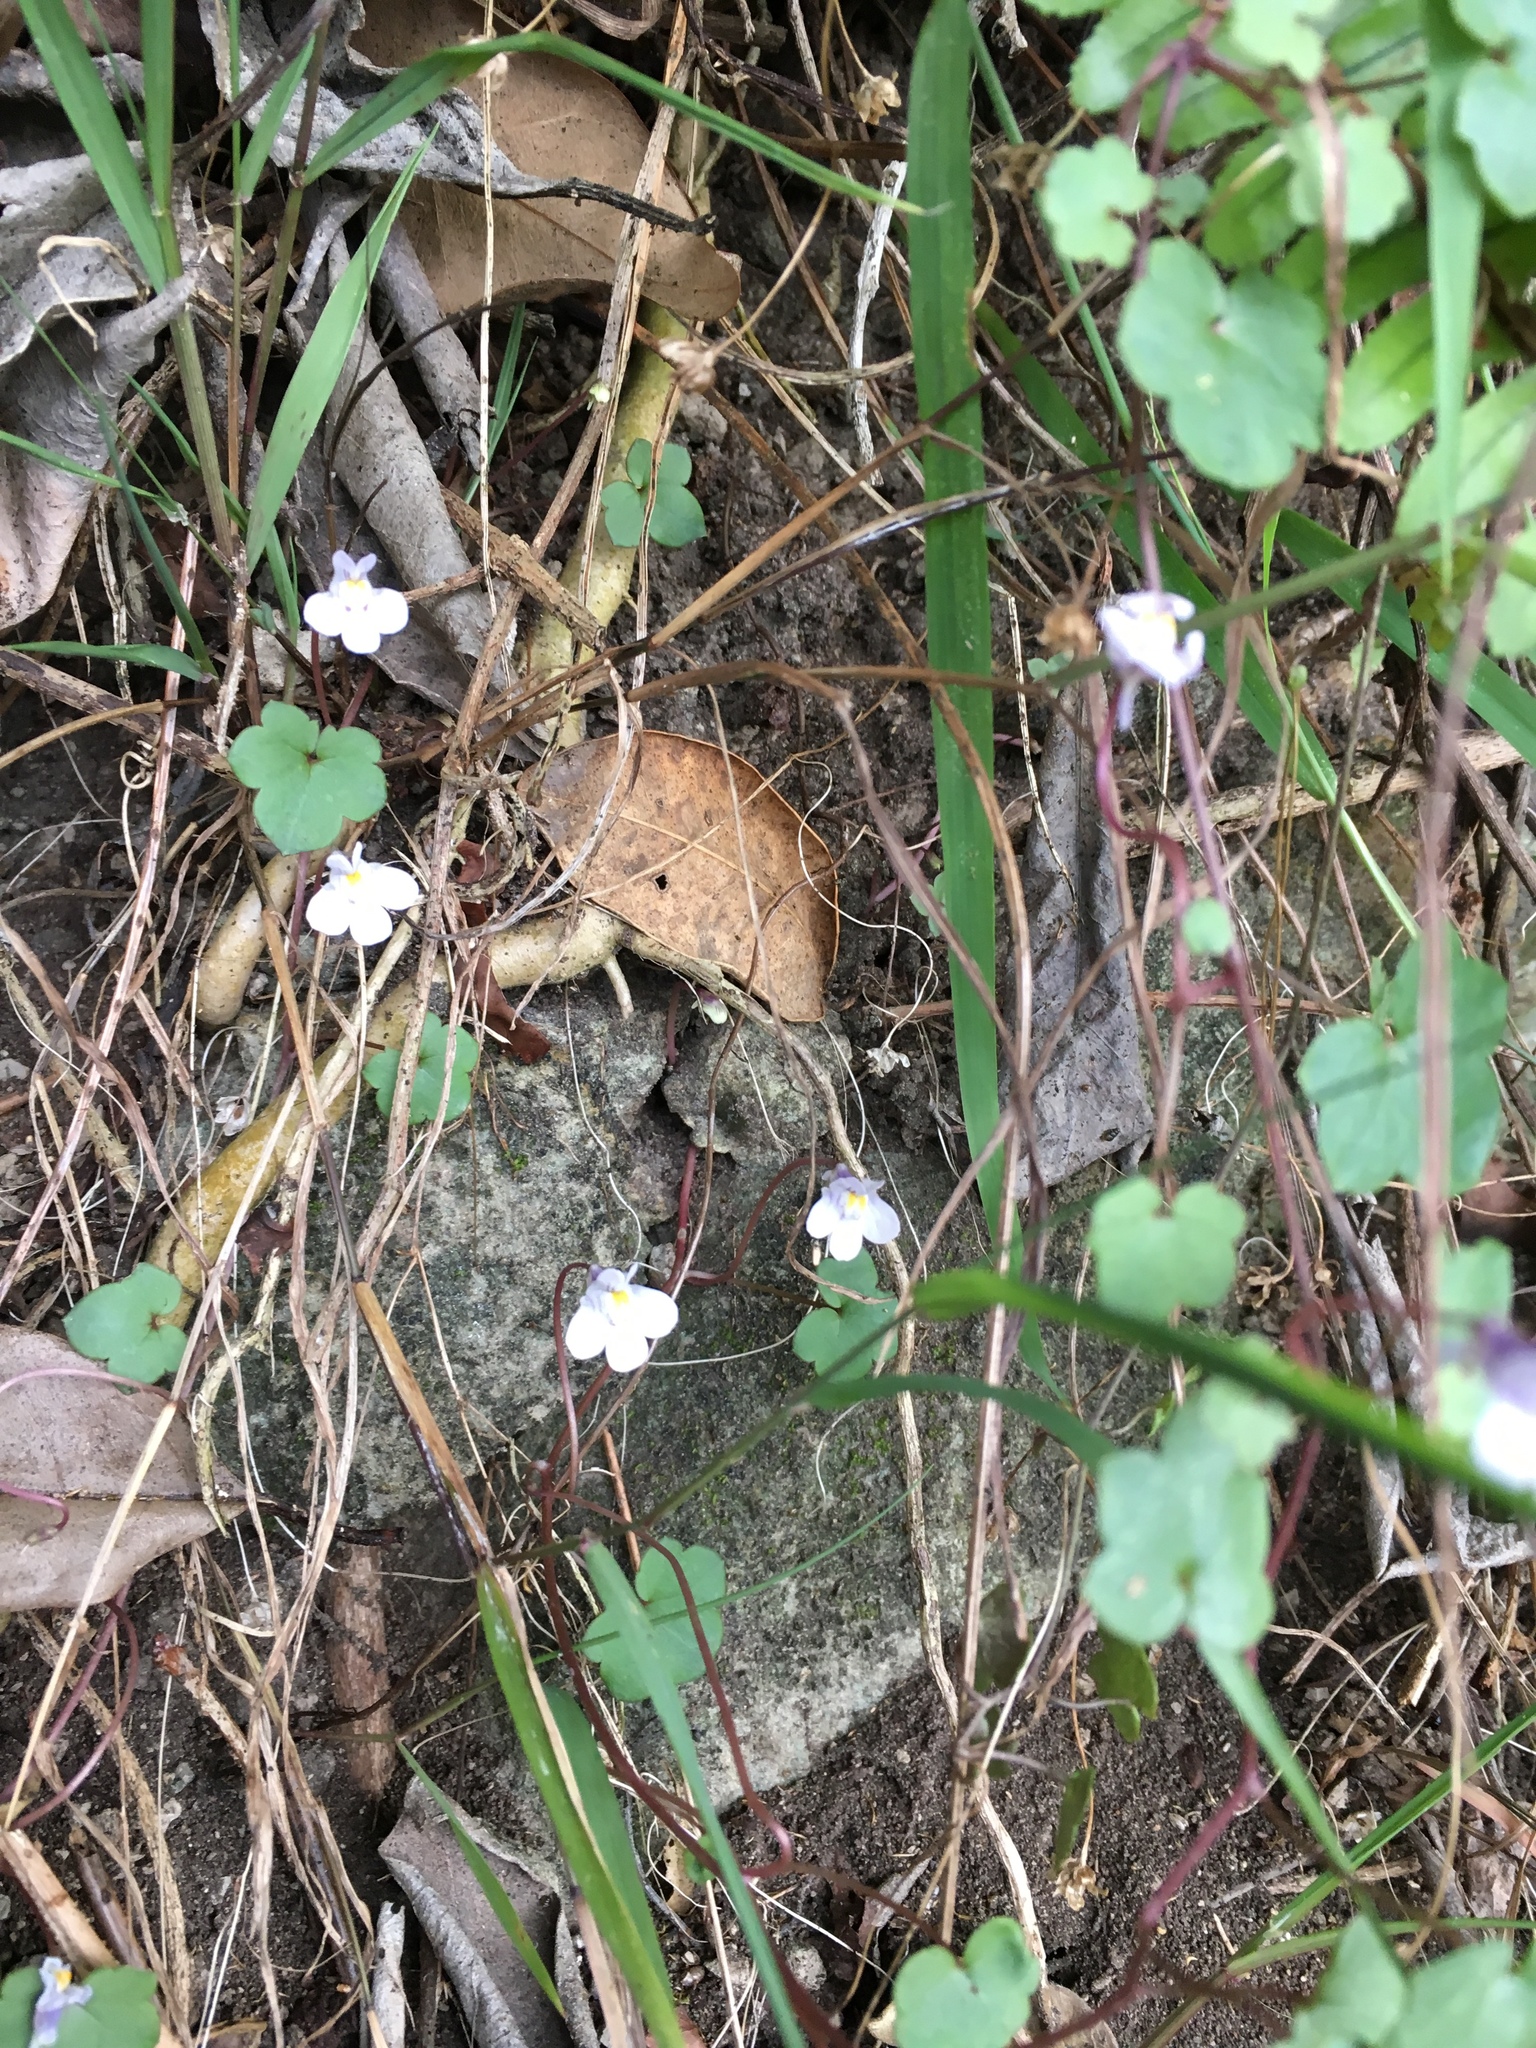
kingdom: Plantae
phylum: Tracheophyta
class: Magnoliopsida
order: Lamiales
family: Plantaginaceae
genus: Cymbalaria
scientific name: Cymbalaria muralis
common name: Ivy-leaved toadflax
